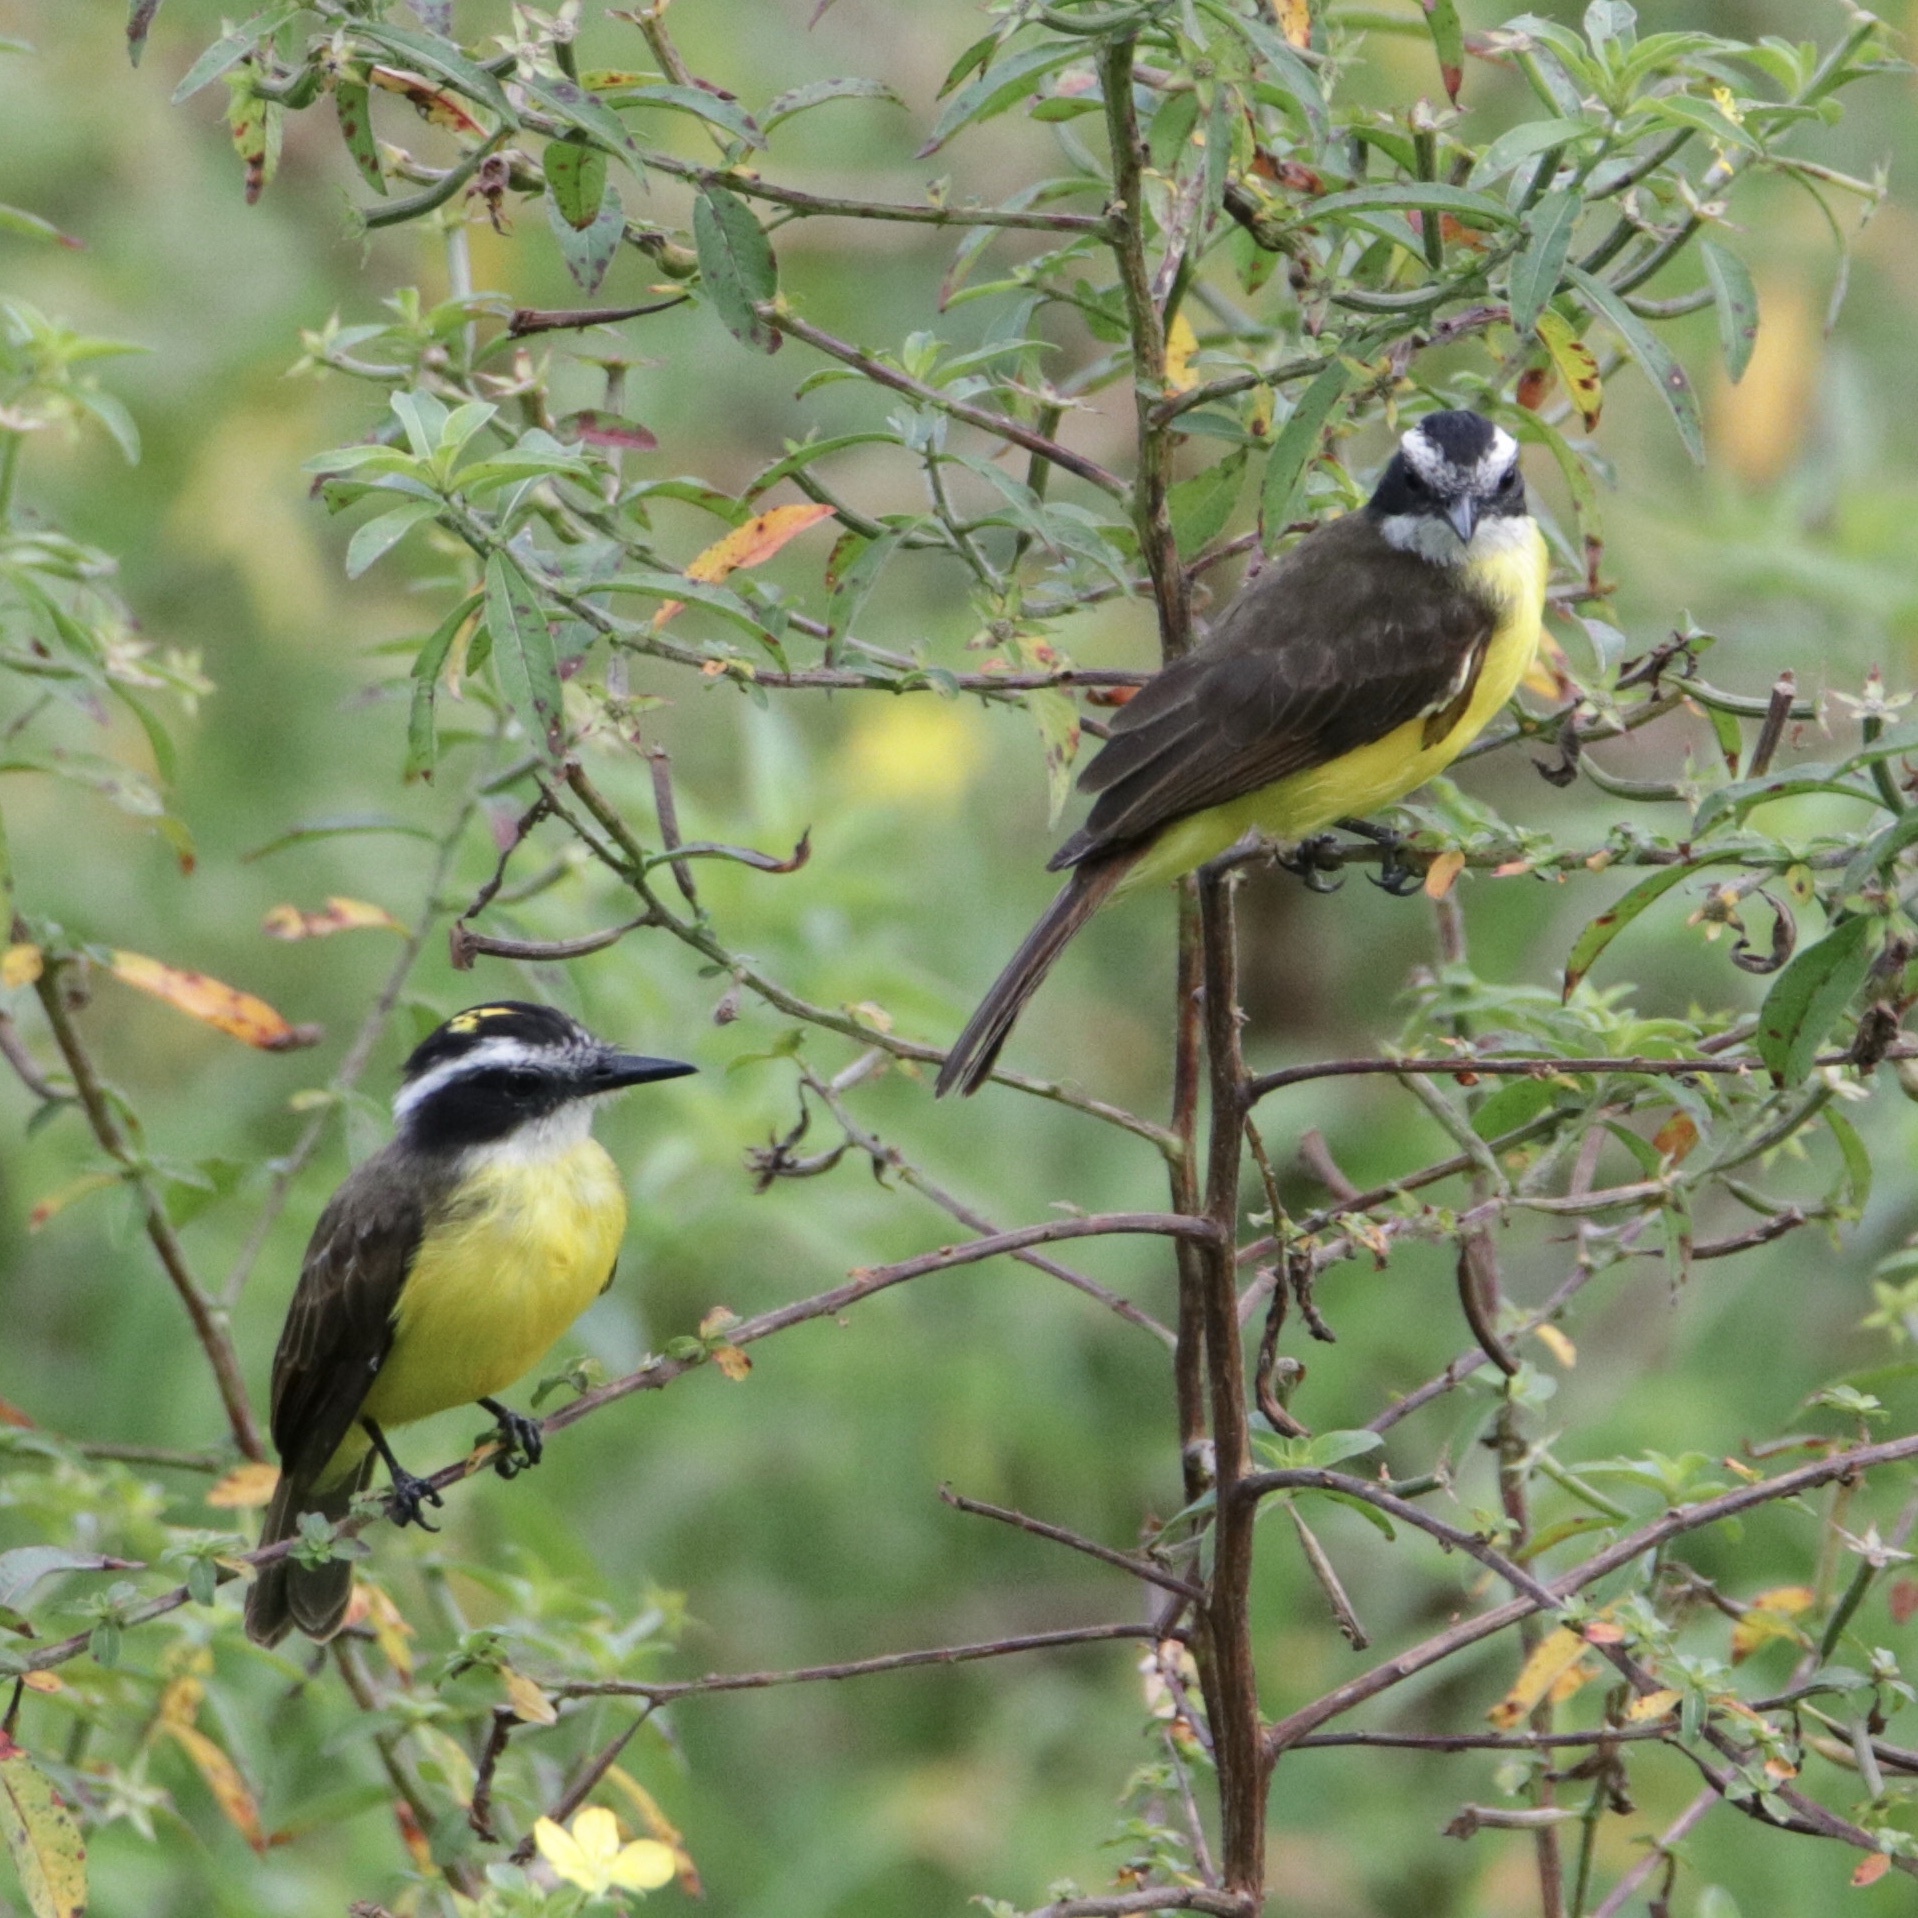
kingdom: Animalia
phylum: Chordata
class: Aves
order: Passeriformes
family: Tyrannidae
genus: Pitangus
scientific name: Pitangus lictor
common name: Lesser kiskadee
